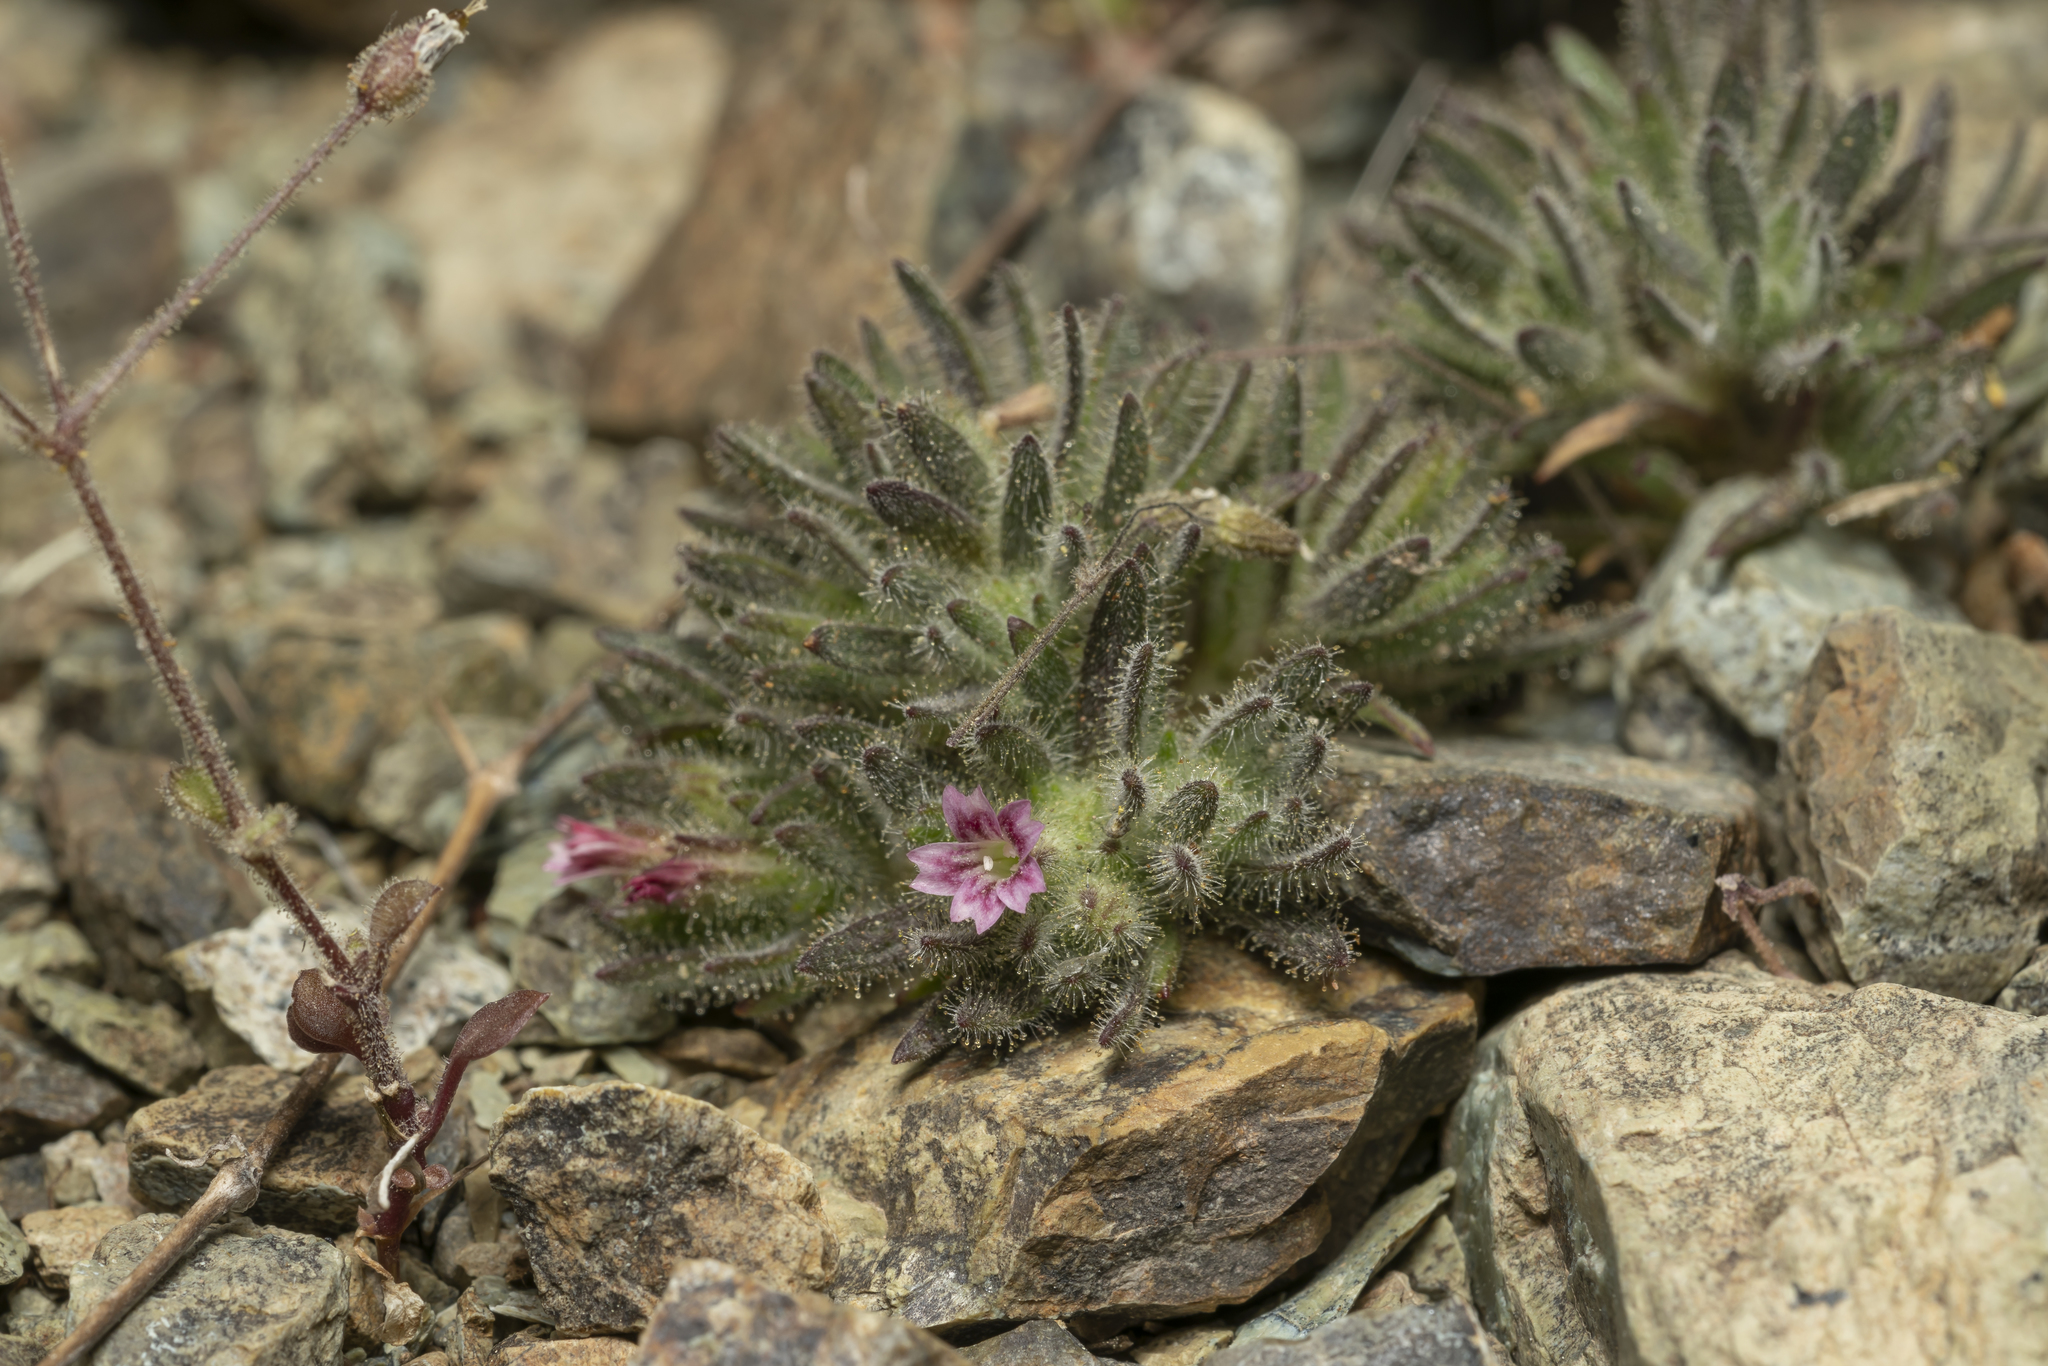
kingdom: Plantae
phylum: Tracheophyta
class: Magnoliopsida
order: Caryophyllales
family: Caryophyllaceae
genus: Bolanthus
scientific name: Bolanthus confertifolius
